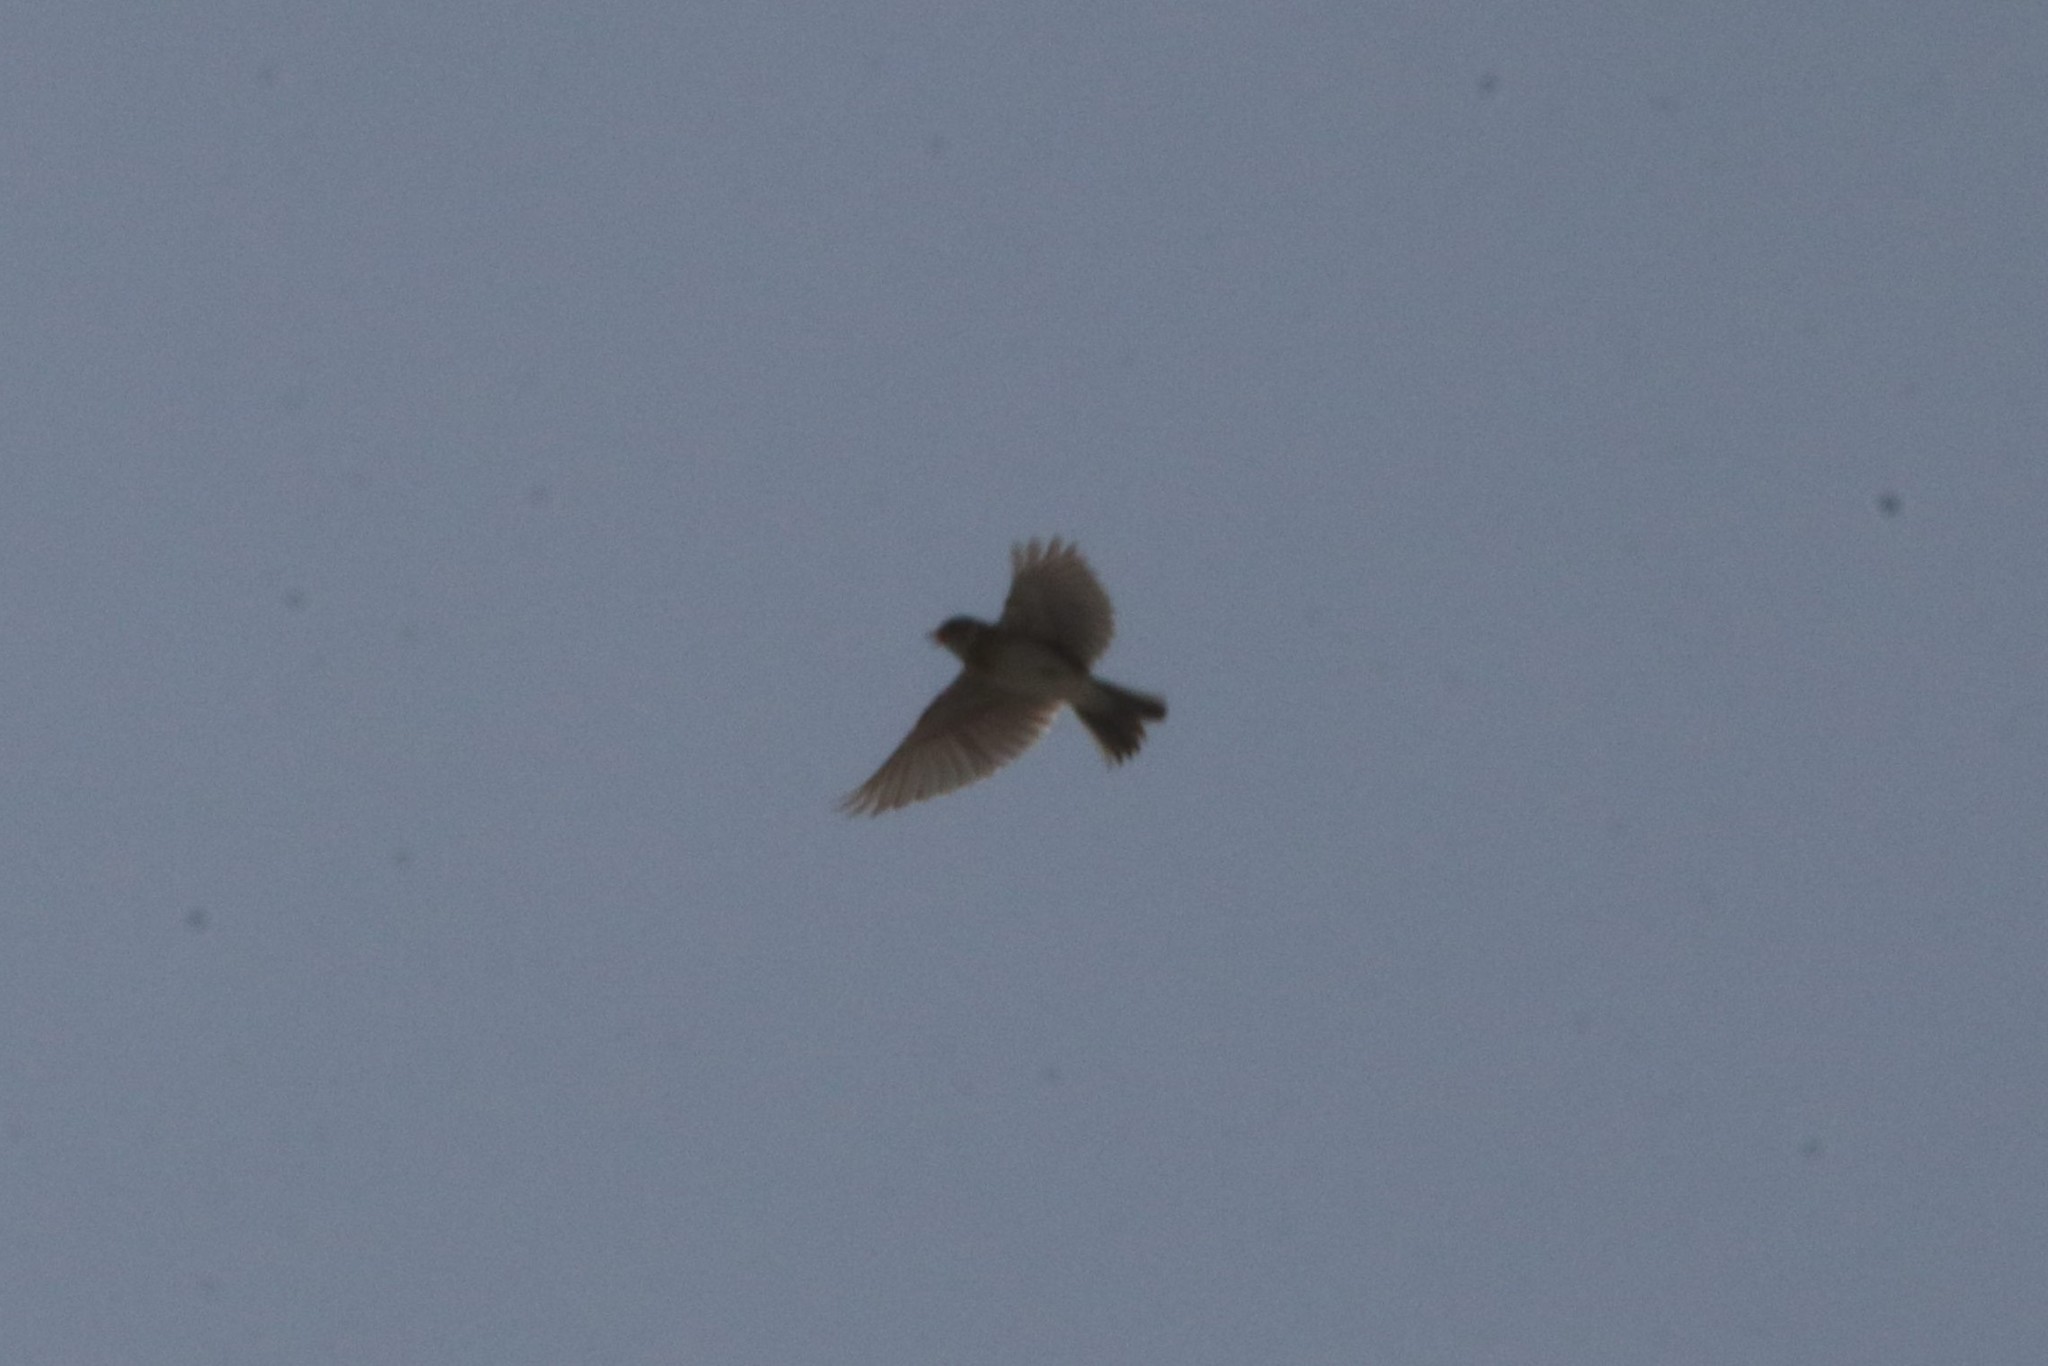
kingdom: Animalia
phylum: Chordata
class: Aves
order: Passeriformes
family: Alaudidae
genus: Alauda
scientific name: Alauda arvensis
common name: Eurasian skylark
